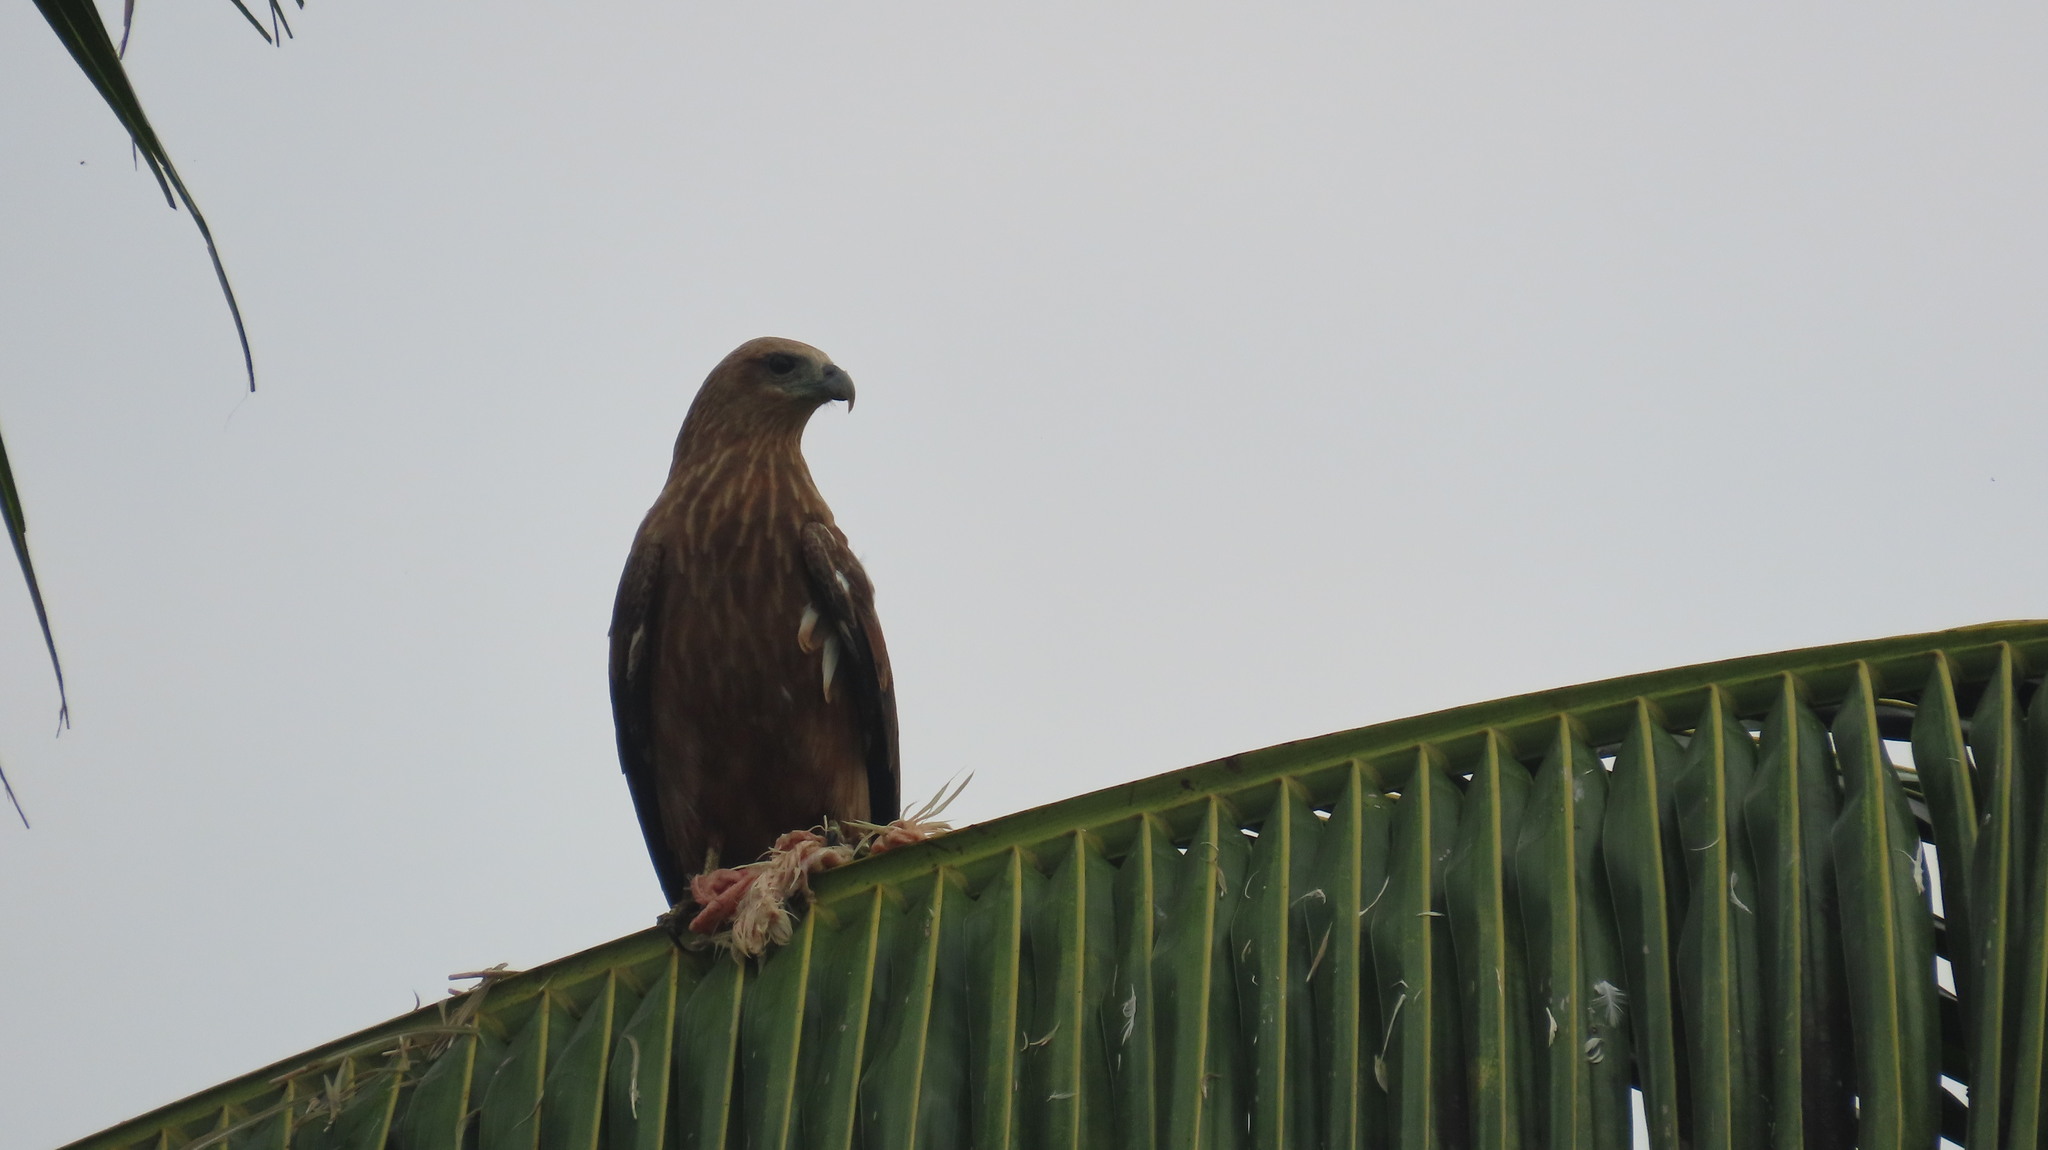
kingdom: Animalia
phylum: Chordata
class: Aves
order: Accipitriformes
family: Accipitridae
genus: Haliastur
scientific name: Haliastur indus
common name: Brahminy kite
